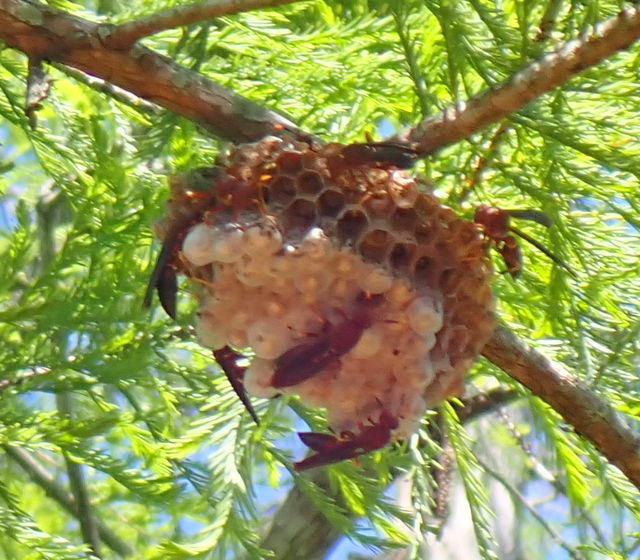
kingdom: Animalia
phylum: Arthropoda
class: Insecta
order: Hymenoptera
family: Eumenidae
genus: Polistes
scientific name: Polistes annularis
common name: Ringed paper wasp
